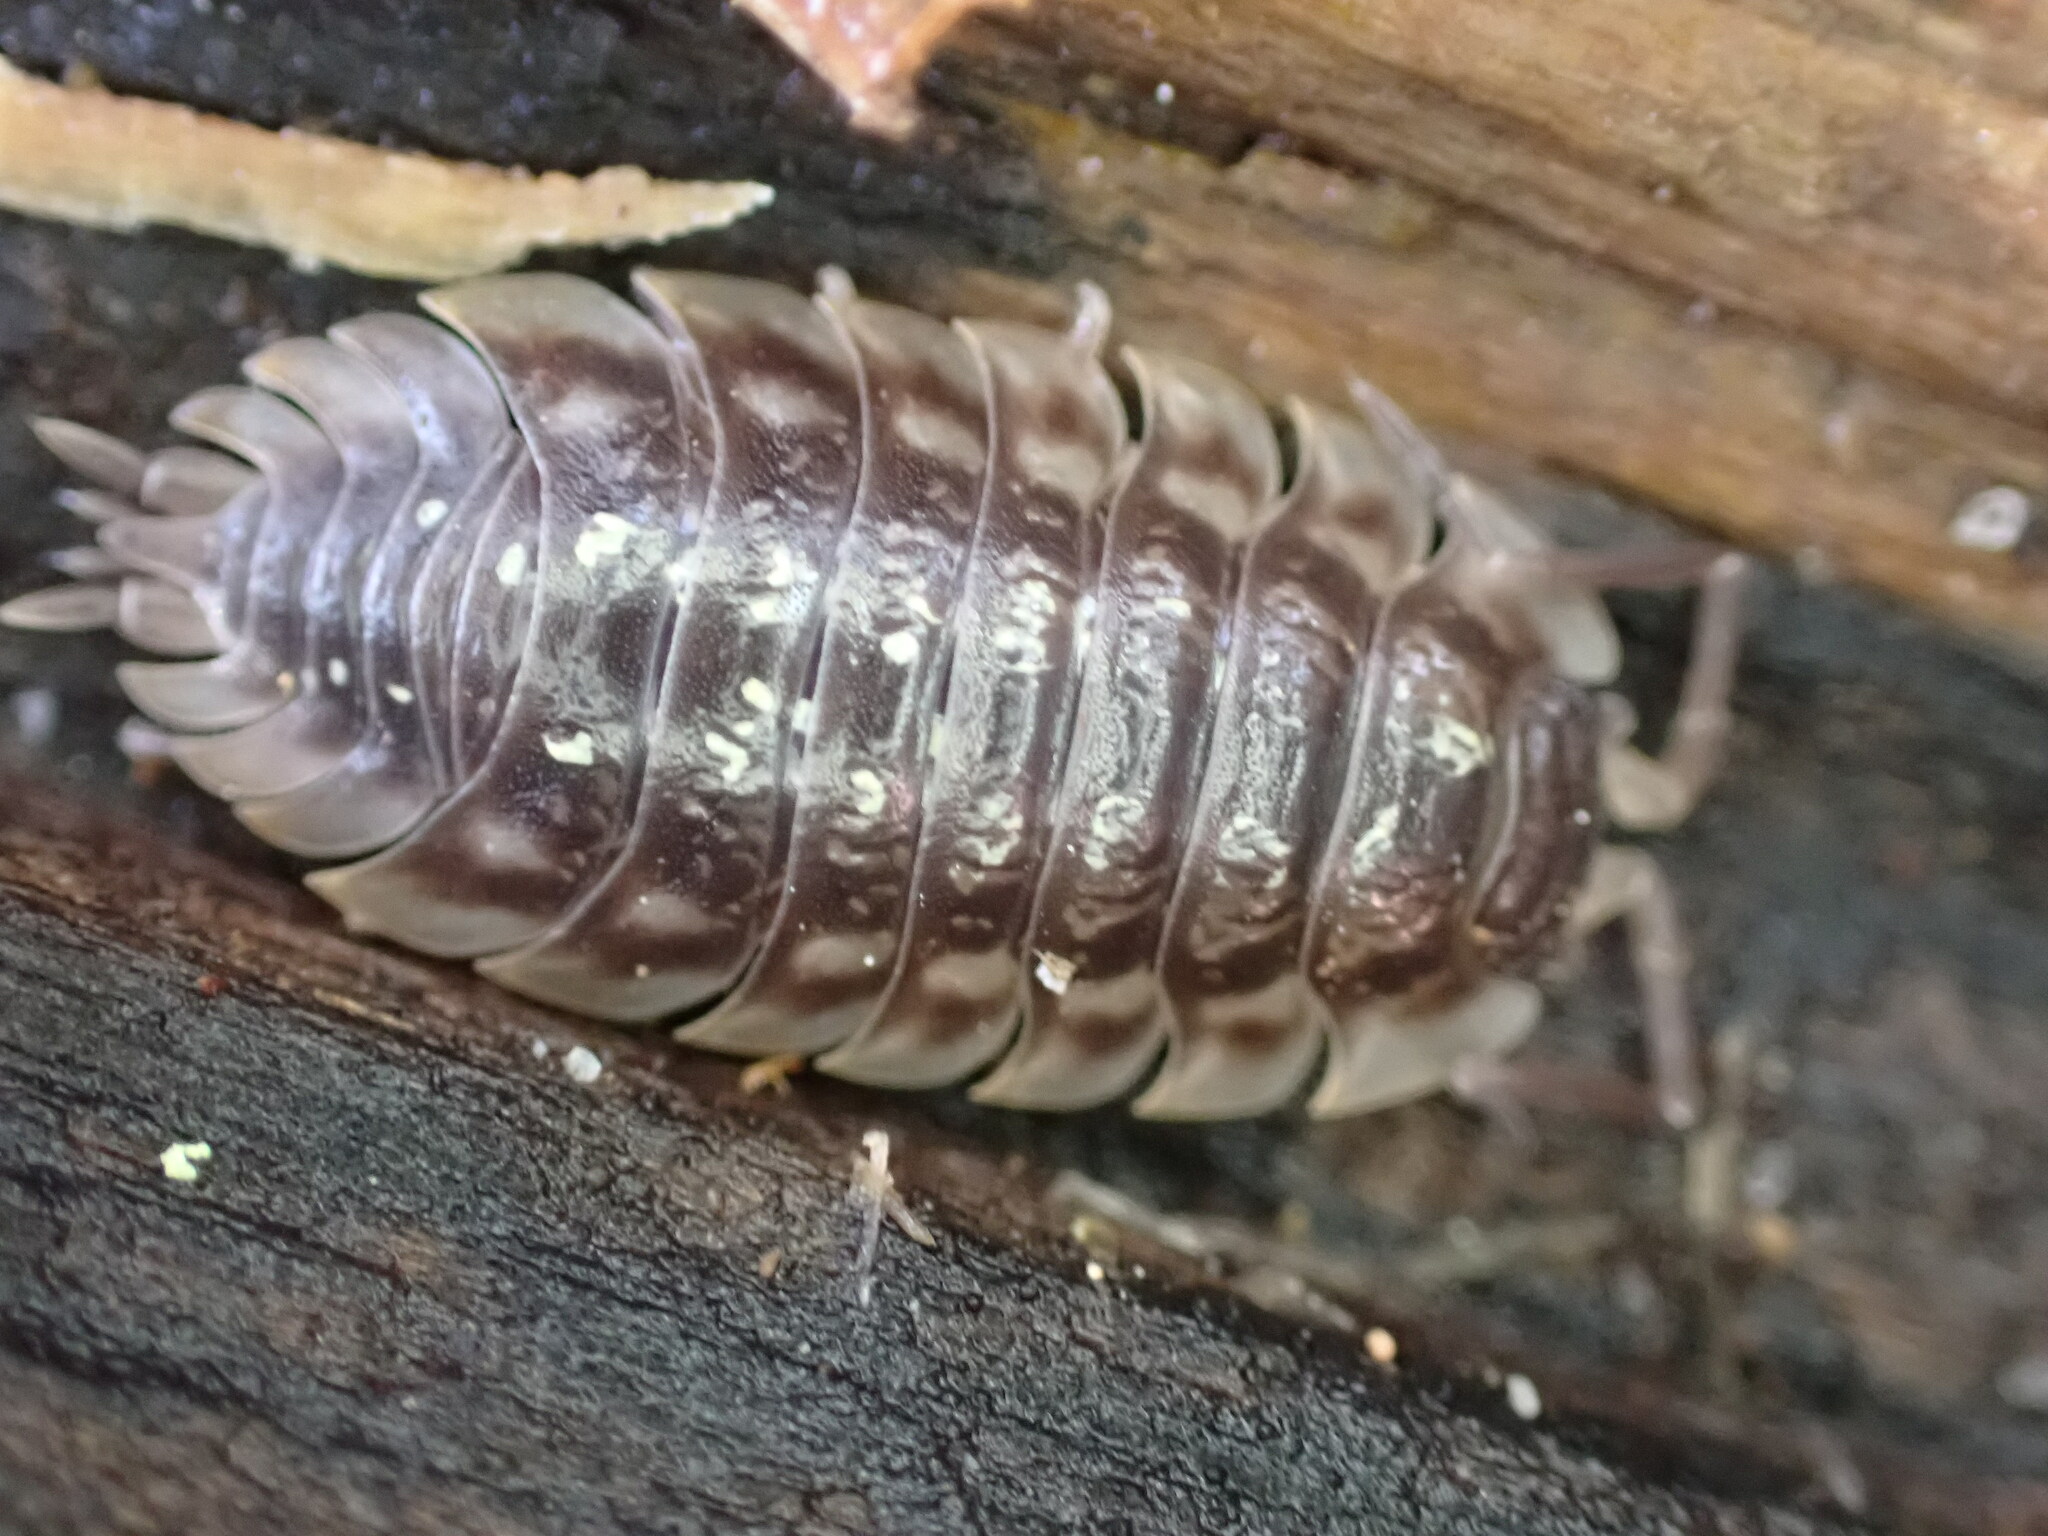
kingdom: Animalia
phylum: Arthropoda
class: Malacostraca
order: Isopoda
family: Oniscidae
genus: Oniscus
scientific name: Oniscus asellus
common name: Common shiny woodlouse
